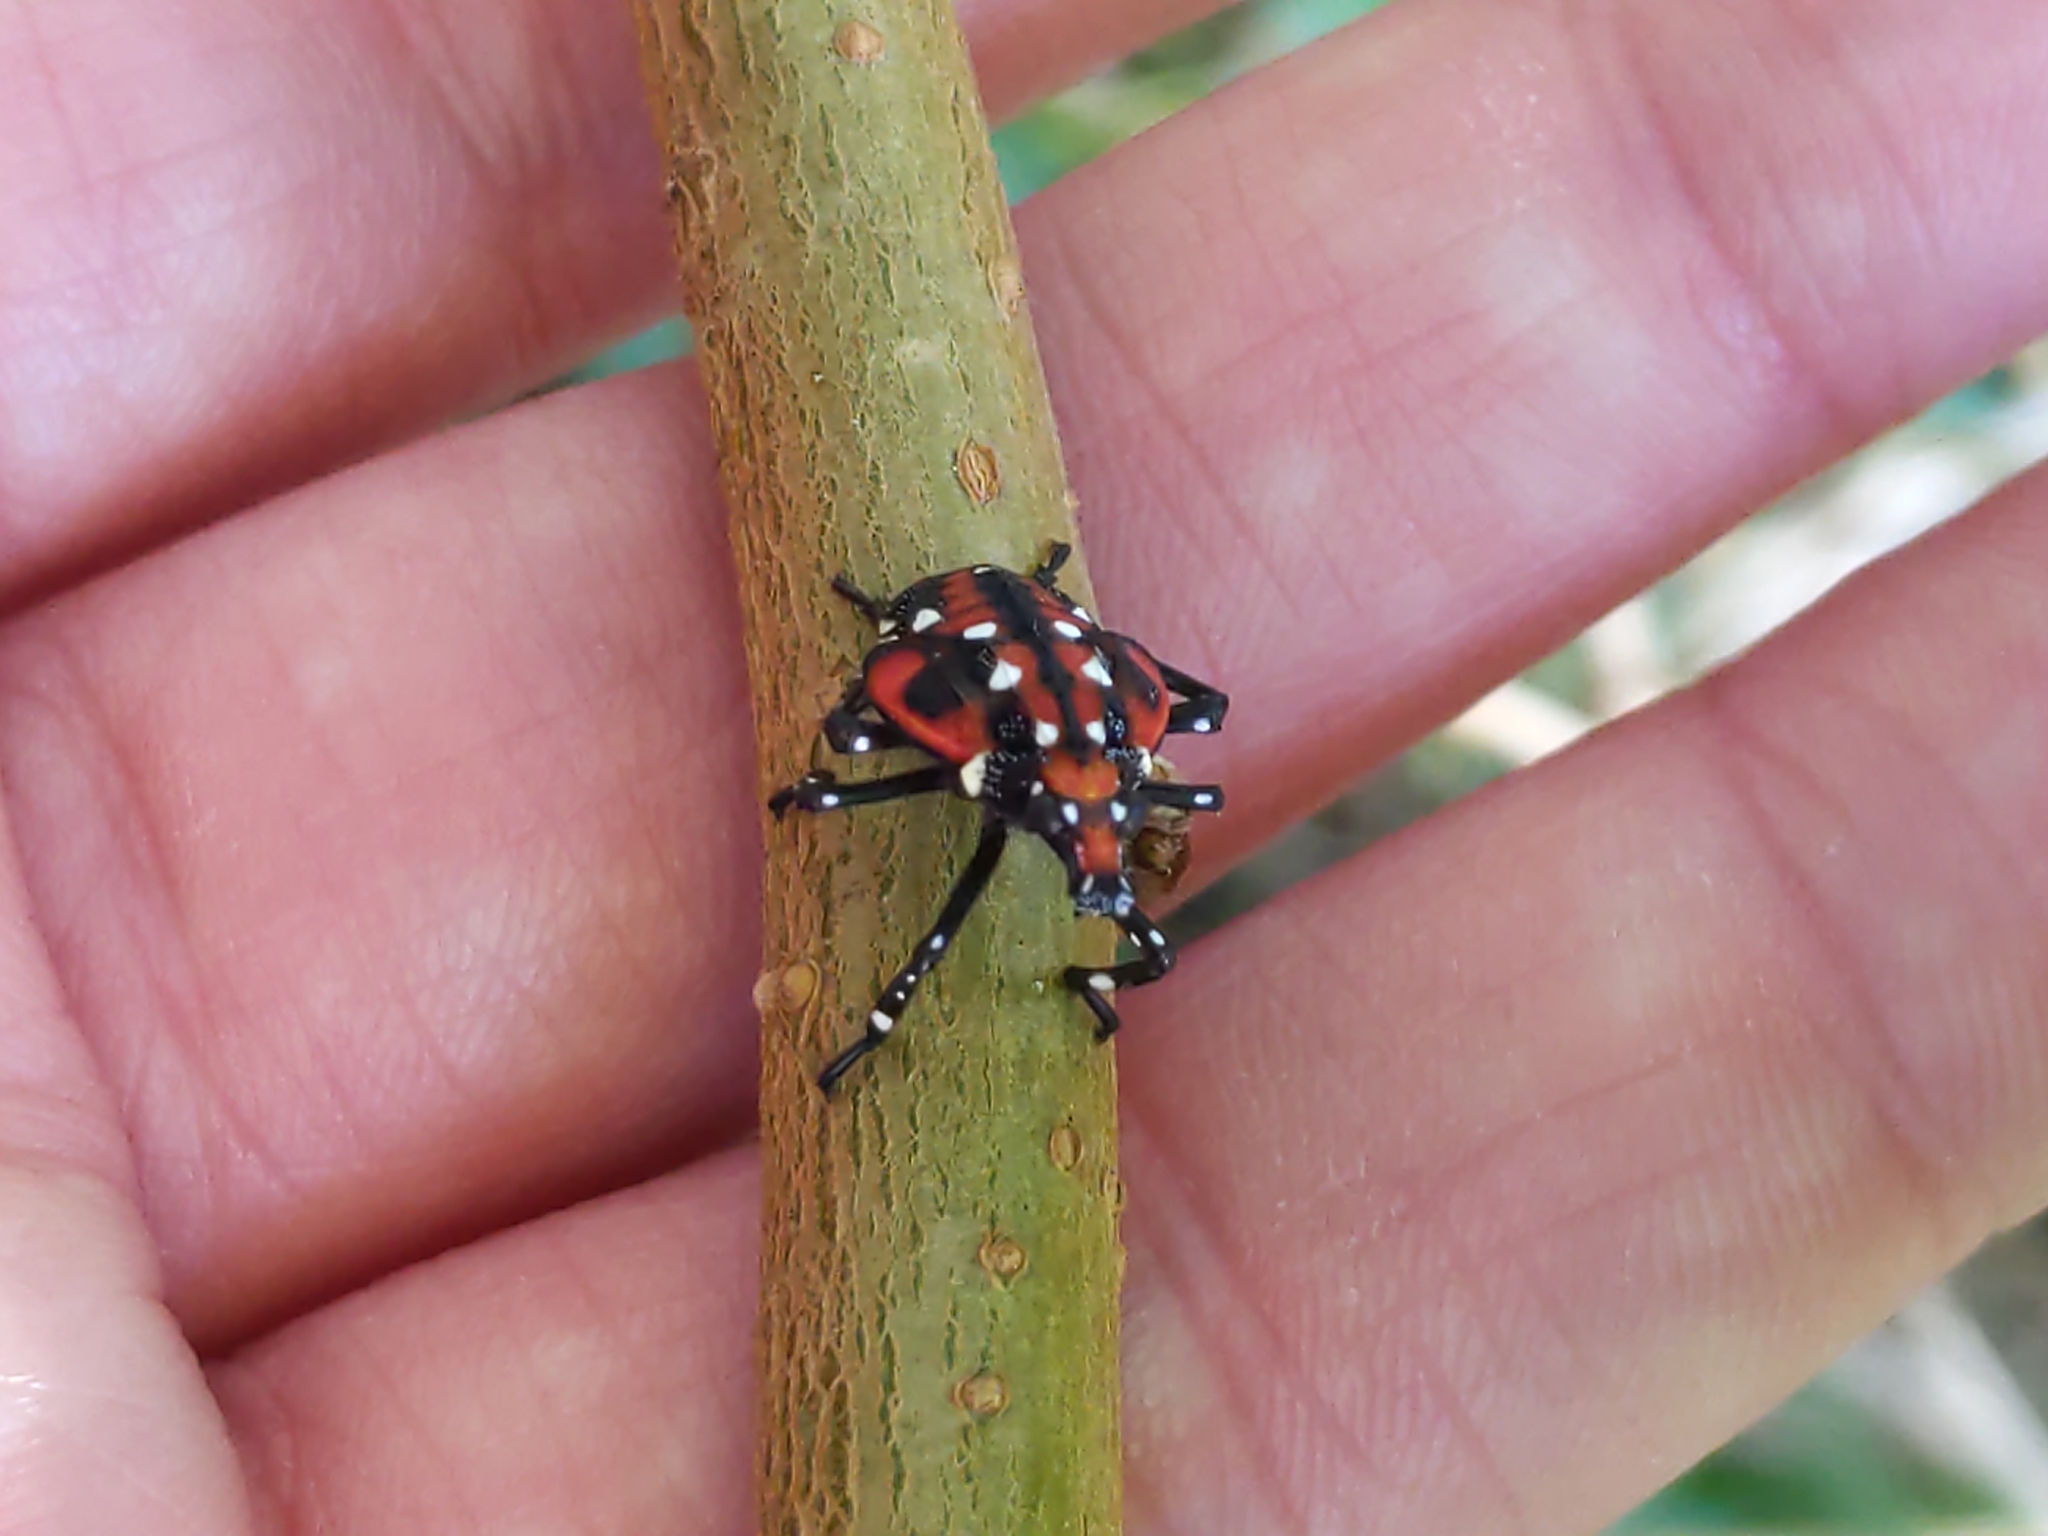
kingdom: Animalia
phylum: Arthropoda
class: Insecta
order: Hemiptera
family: Fulgoridae
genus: Lycorma
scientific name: Lycorma delicatula
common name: Spotted lanternfly
